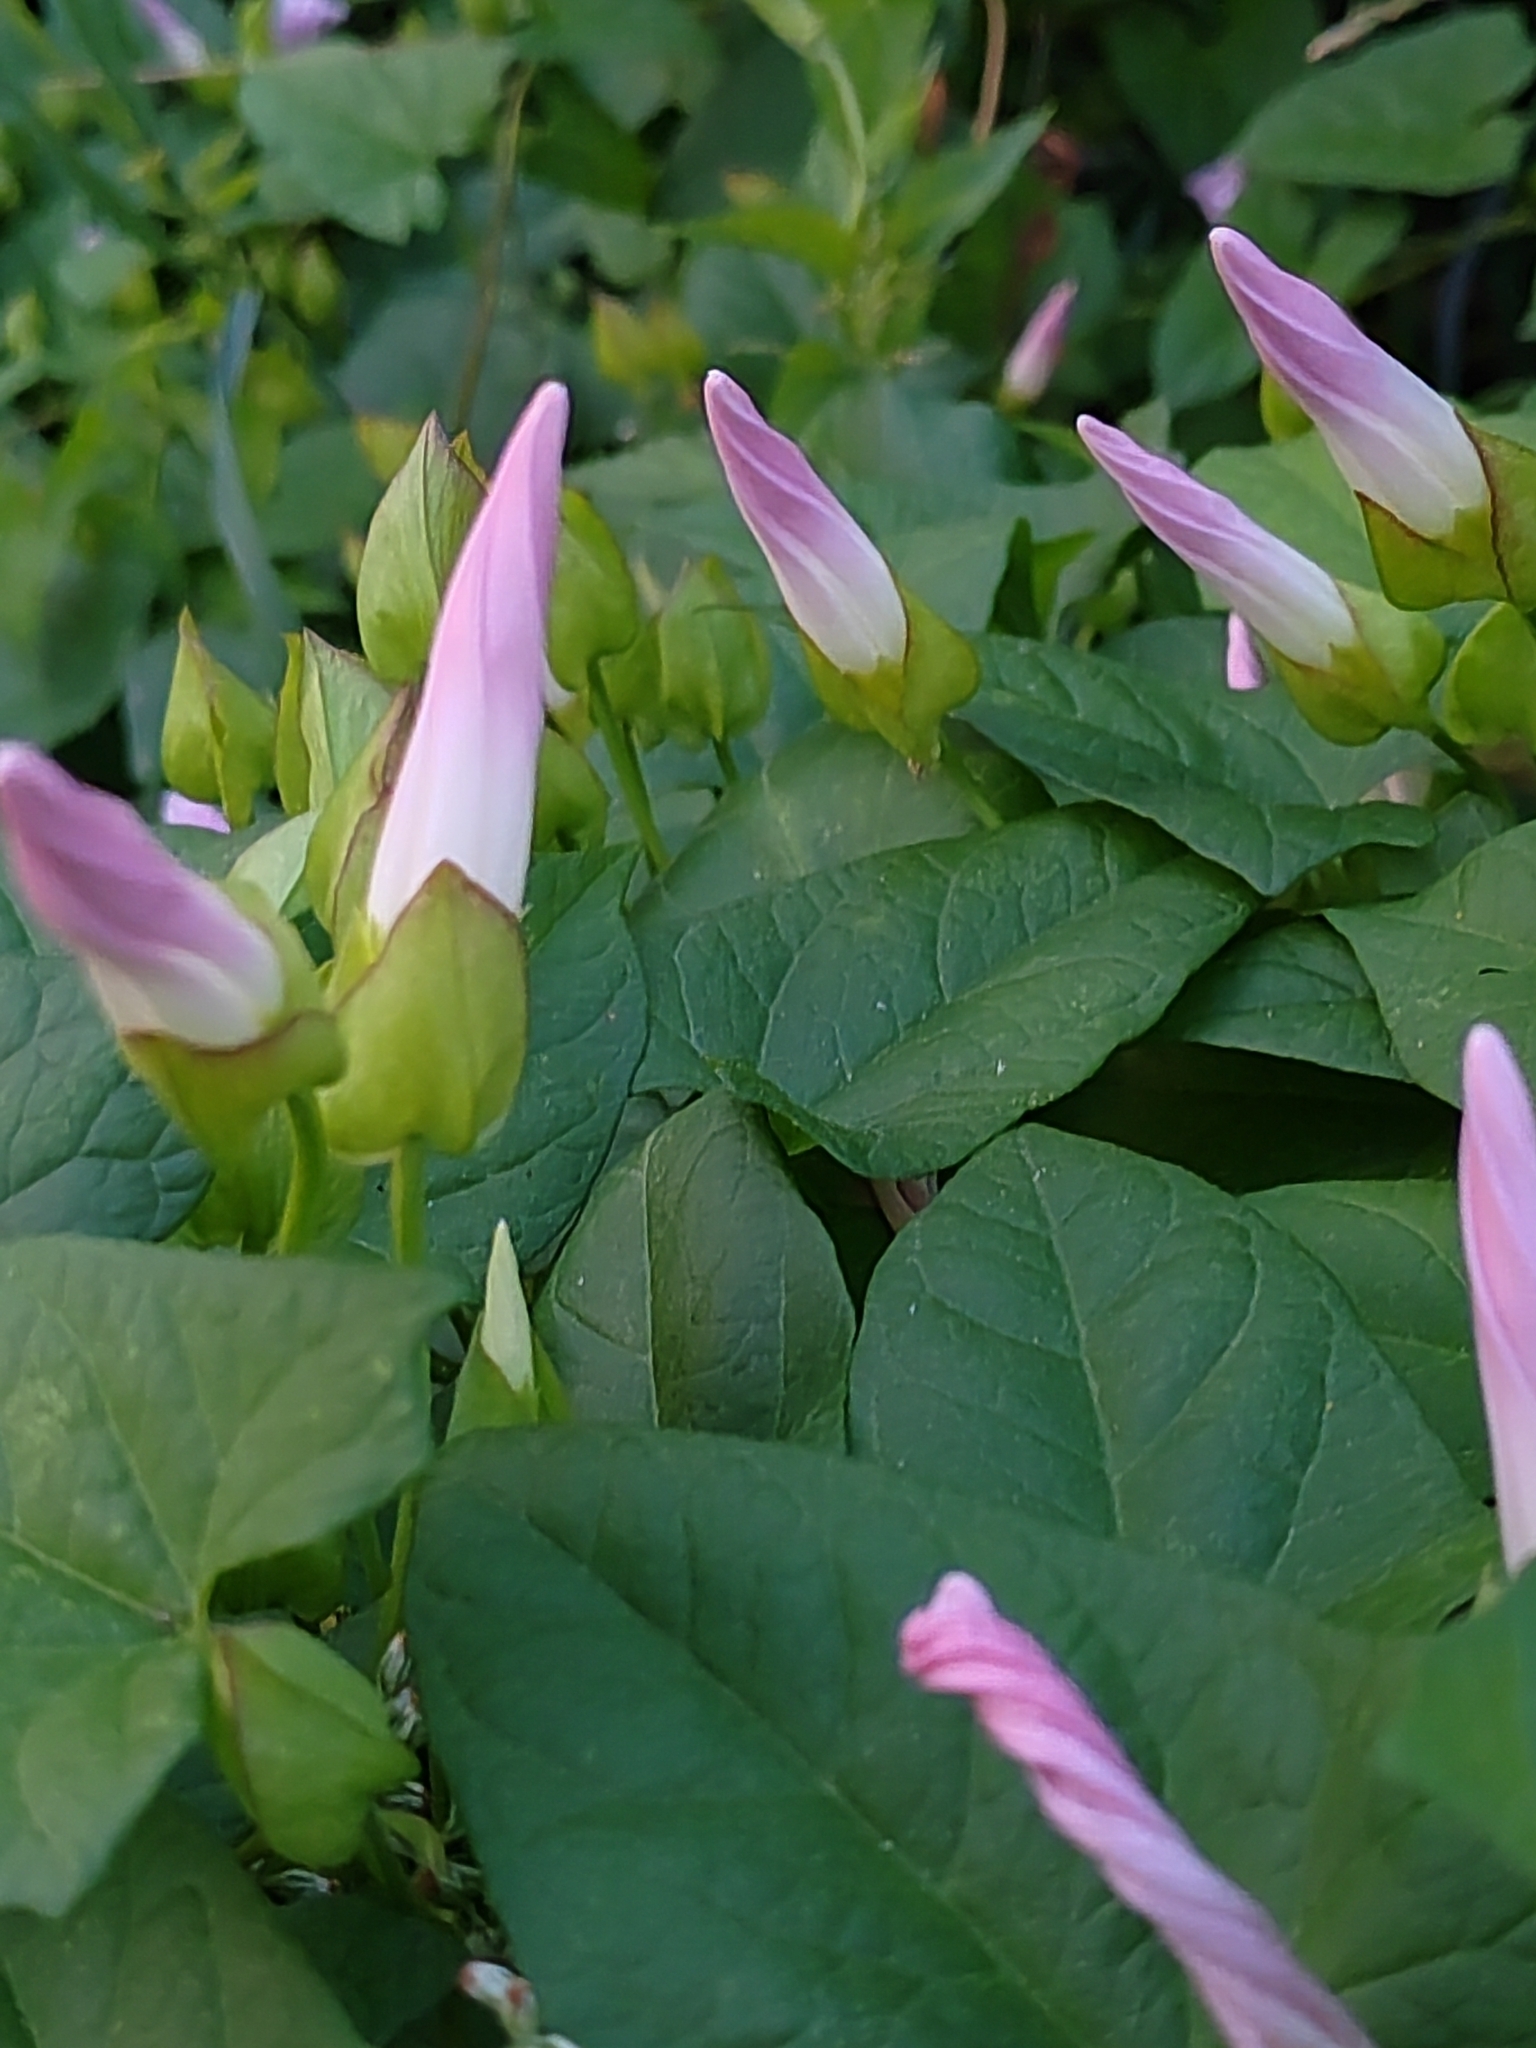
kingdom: Plantae
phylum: Tracheophyta
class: Magnoliopsida
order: Solanales
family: Convolvulaceae
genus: Calystegia
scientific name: Calystegia sepium
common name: Hedge bindweed
